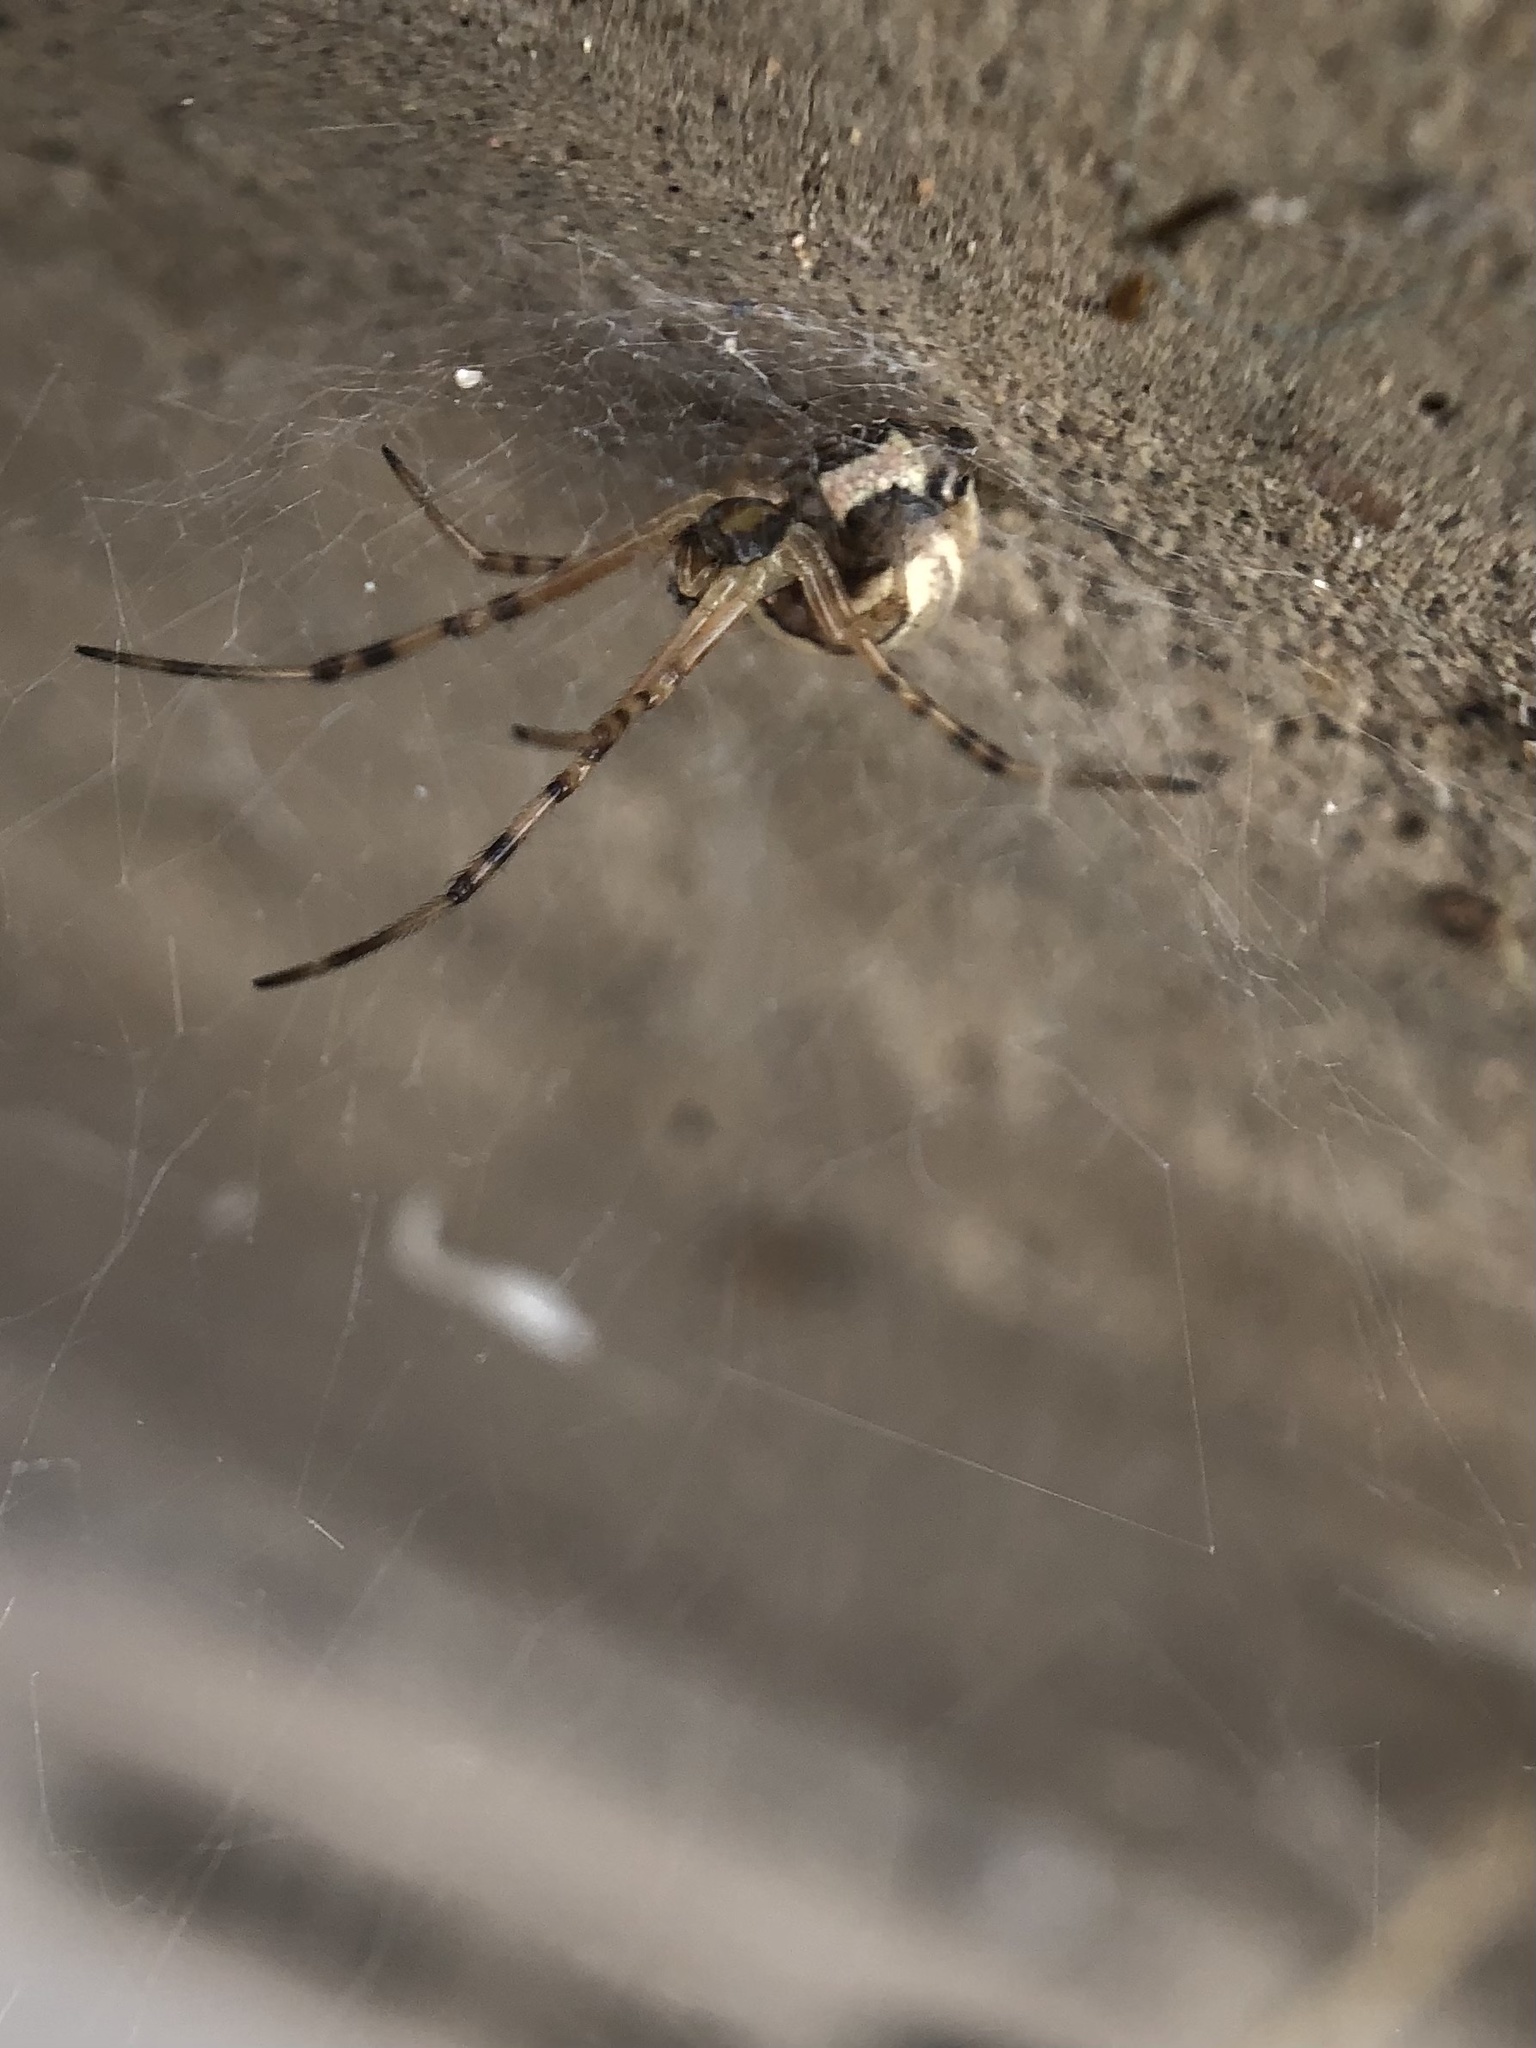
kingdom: Animalia
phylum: Arthropoda
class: Arachnida
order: Araneae
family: Theridiidae
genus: Latrodectus
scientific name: Latrodectus hesperus
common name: Western black widow
